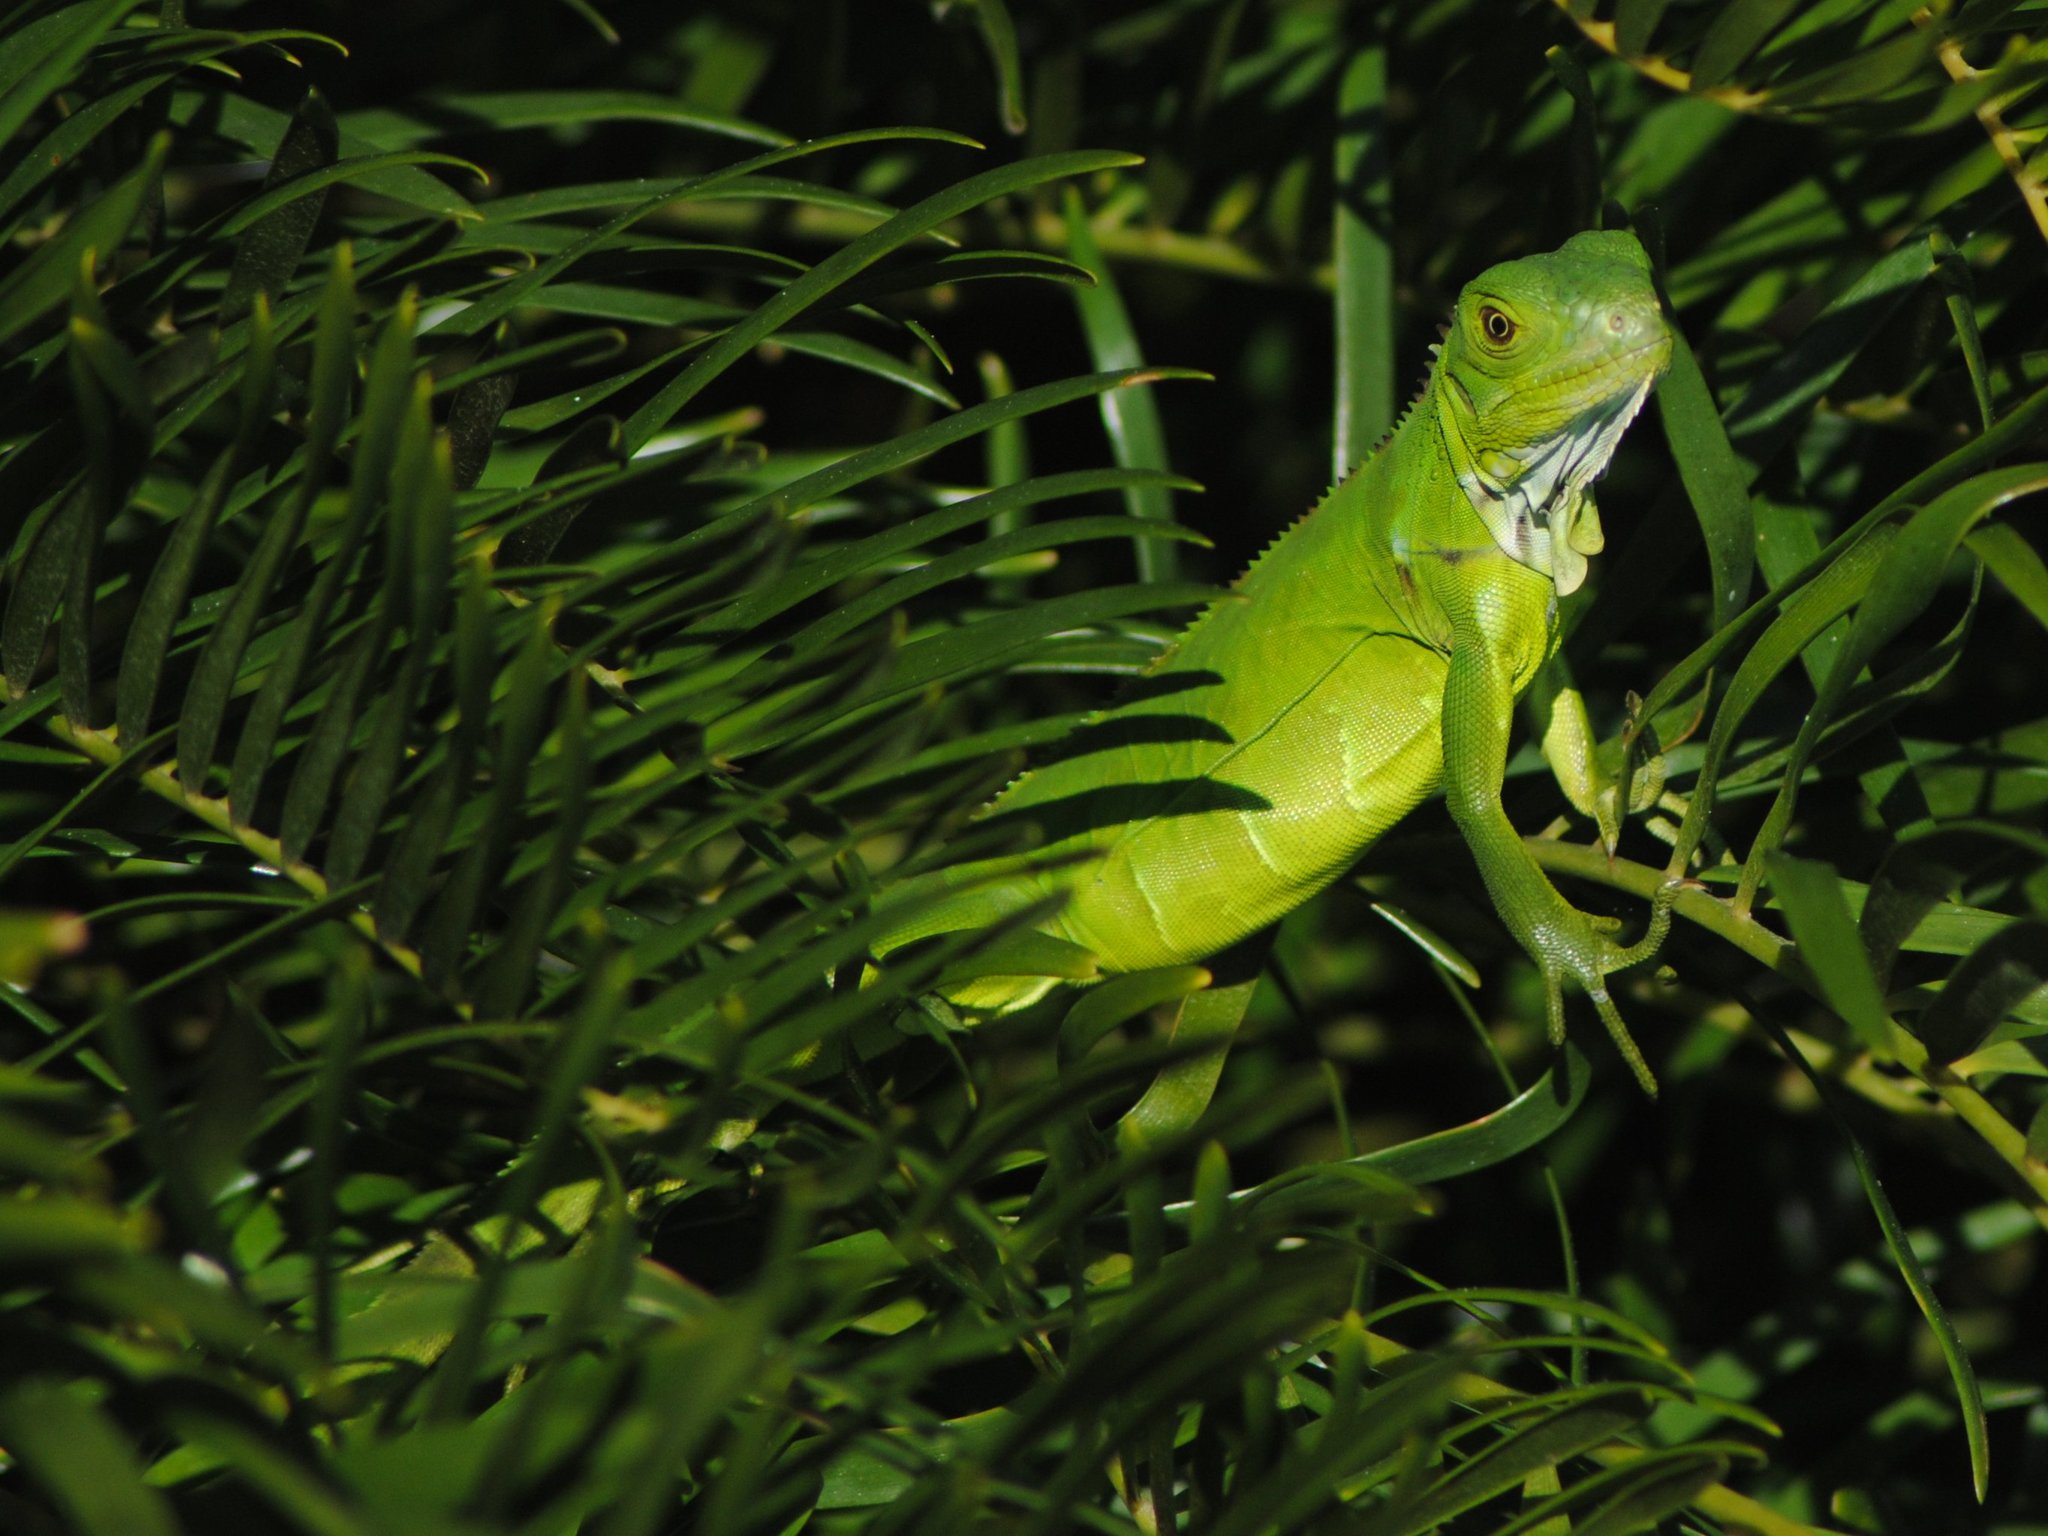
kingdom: Animalia
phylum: Chordata
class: Squamata
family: Iguanidae
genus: Iguana
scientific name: Iguana iguana
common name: Green iguana
